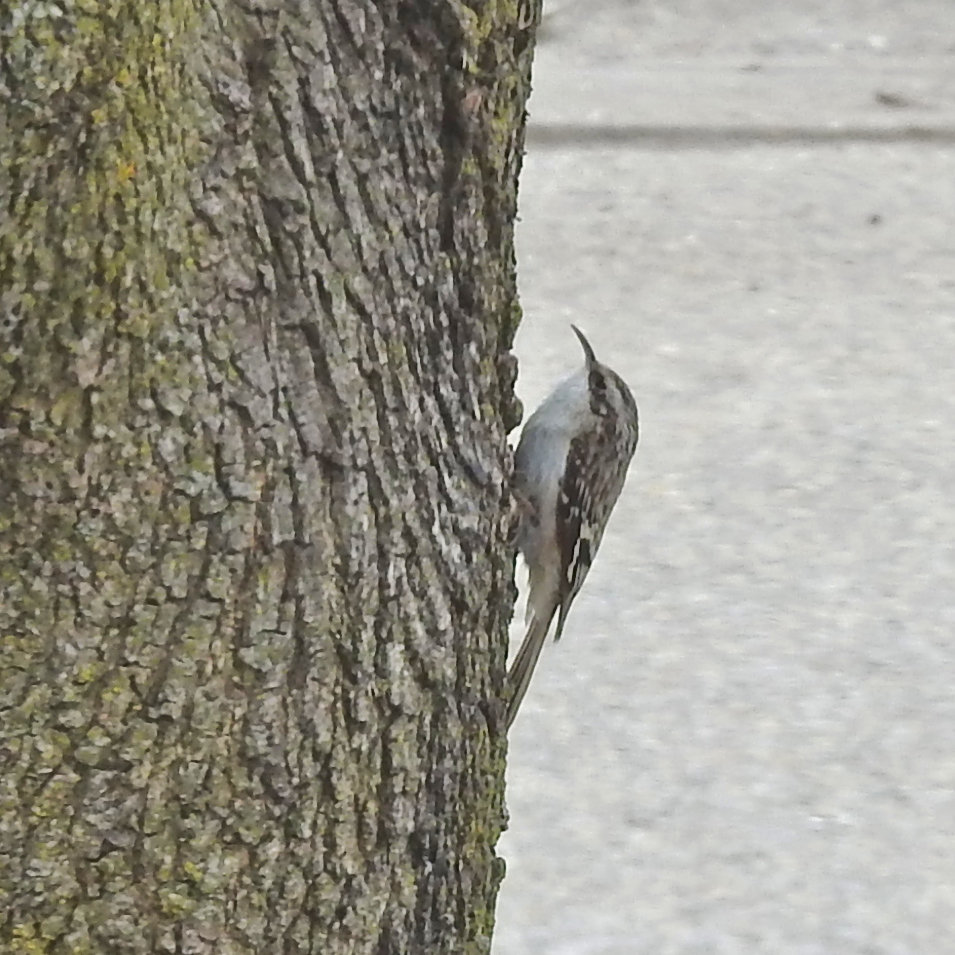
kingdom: Animalia
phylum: Chordata
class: Aves
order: Passeriformes
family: Certhiidae
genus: Certhia
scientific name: Certhia americana
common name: Brown creeper
